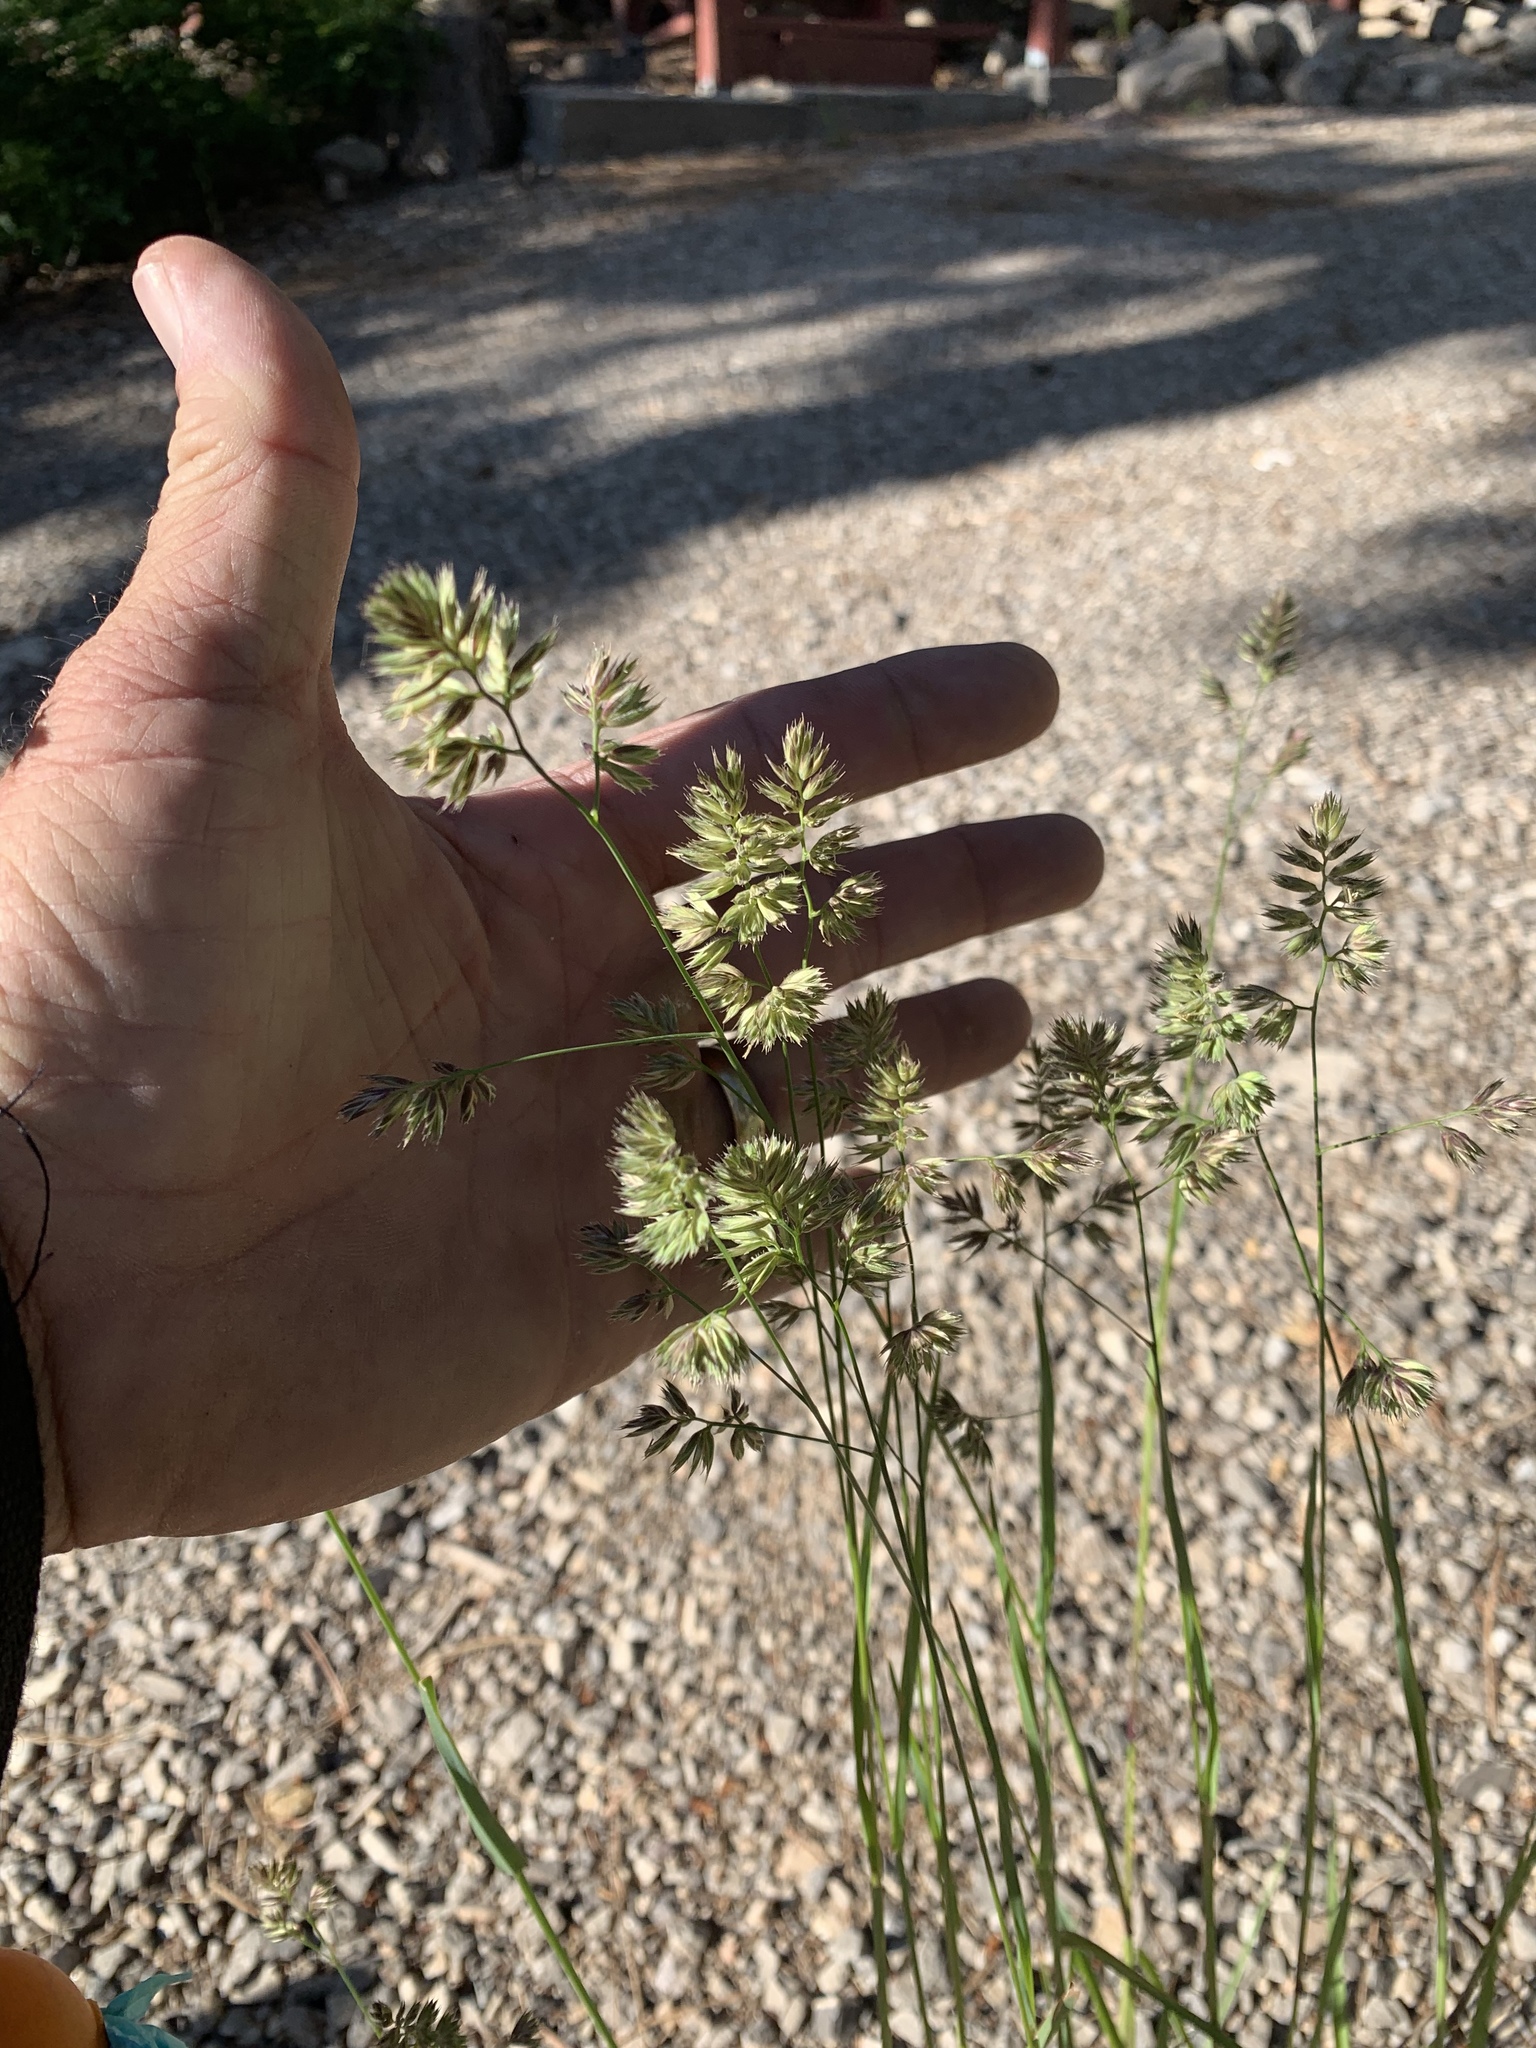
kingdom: Plantae
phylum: Tracheophyta
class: Liliopsida
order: Poales
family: Poaceae
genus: Dactylis
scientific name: Dactylis glomerata
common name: Orchardgrass
